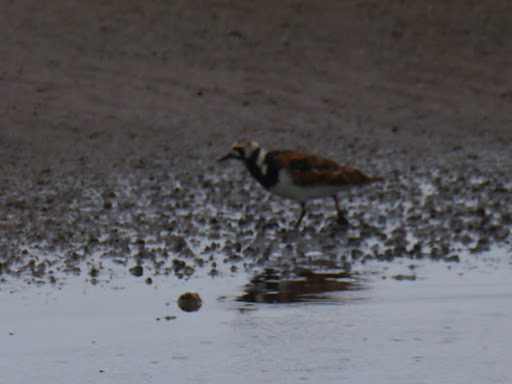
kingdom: Animalia
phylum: Chordata
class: Aves
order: Charadriiformes
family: Scolopacidae
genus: Arenaria
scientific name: Arenaria interpres
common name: Ruddy turnstone
